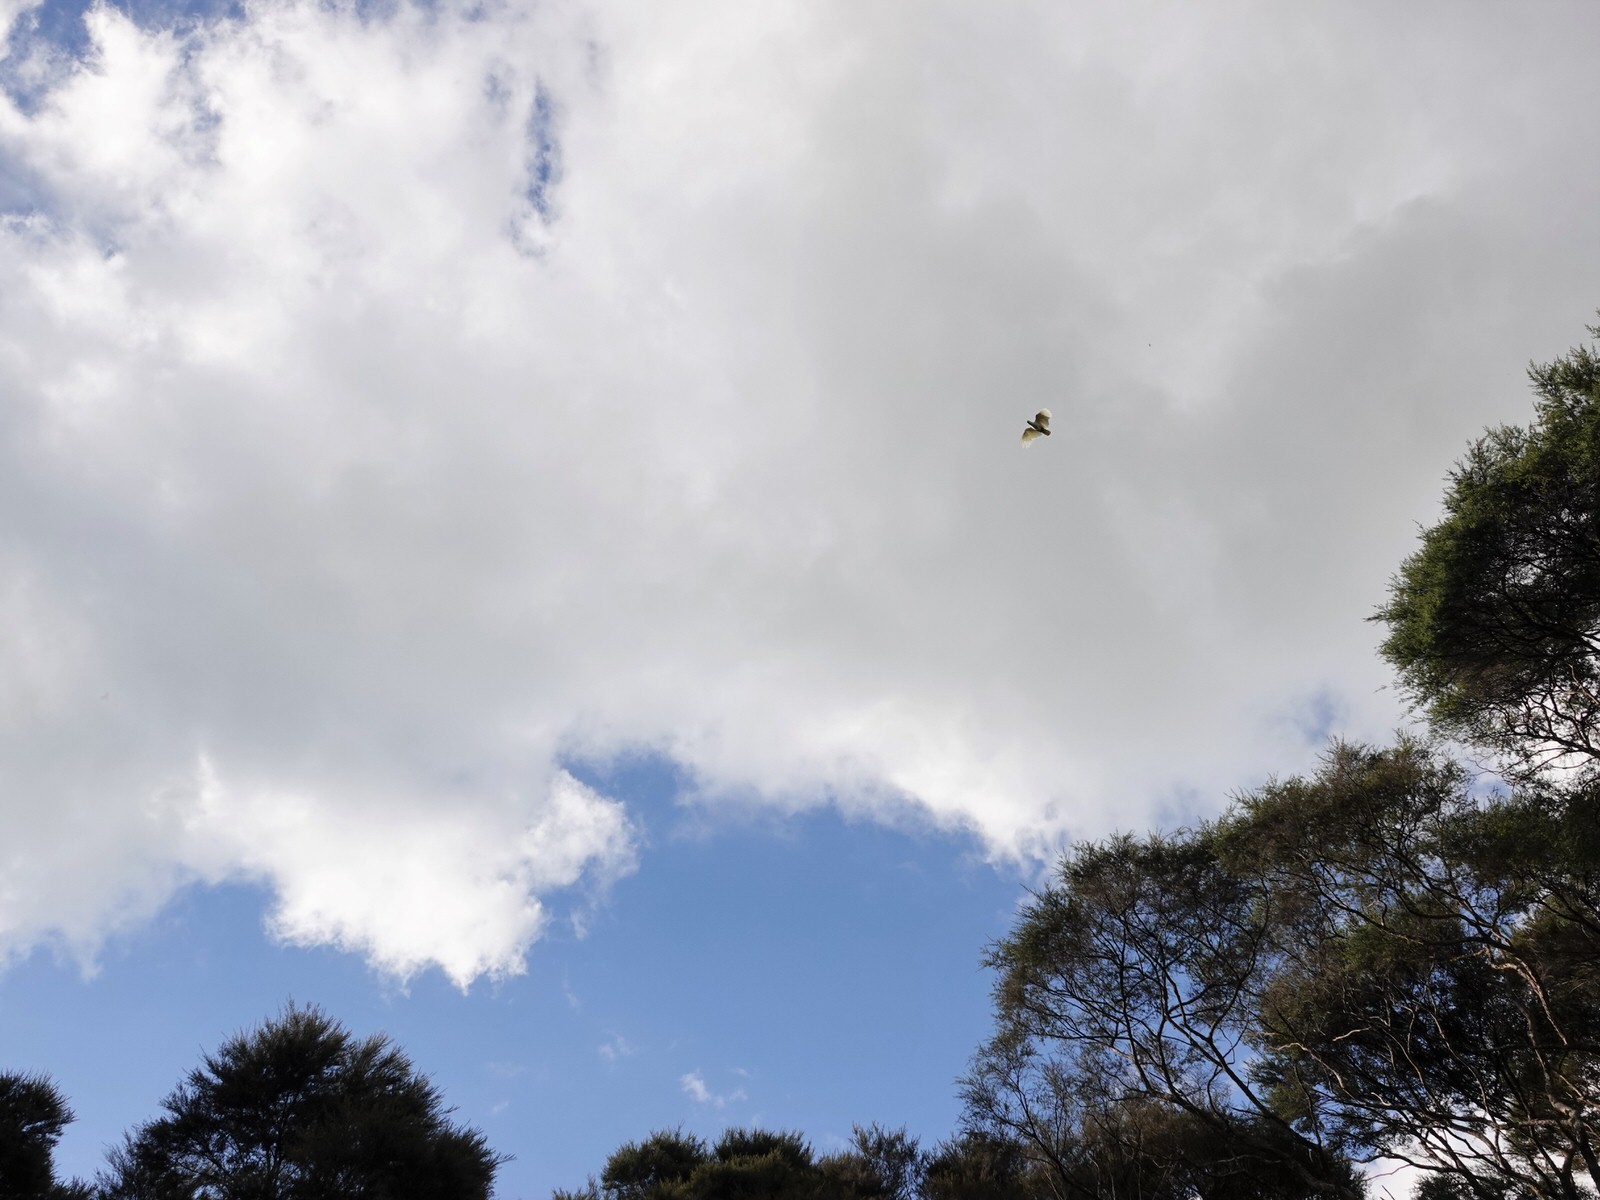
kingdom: Animalia
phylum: Chordata
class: Aves
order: Psittaciformes
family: Psittacidae
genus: Cacatua
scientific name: Cacatua galerita
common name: Sulphur-crested cockatoo
